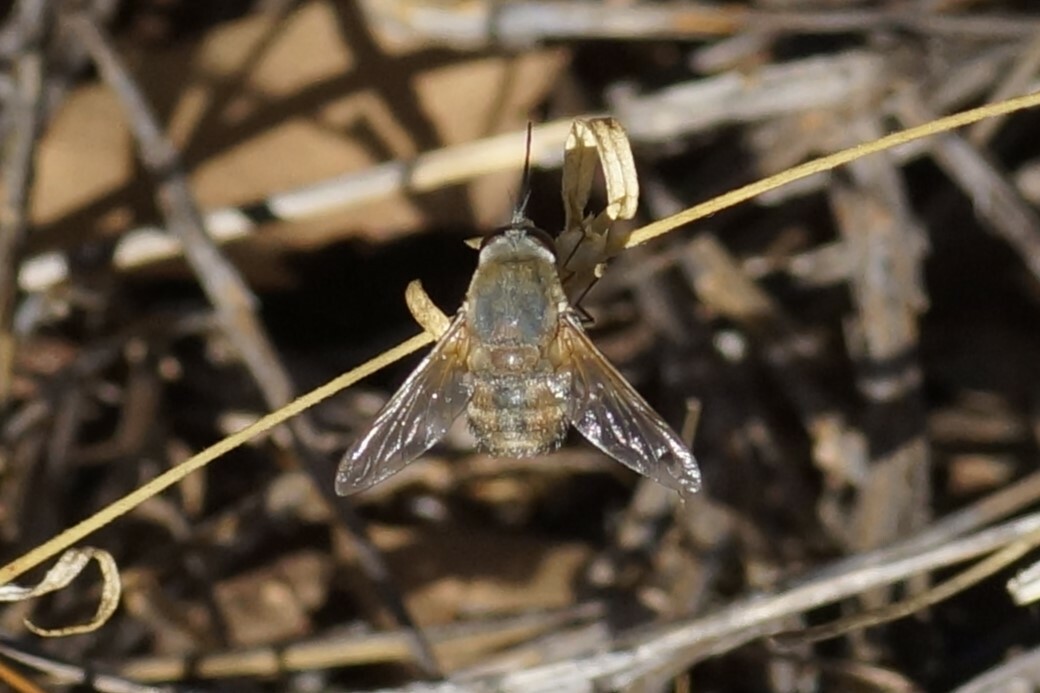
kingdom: Animalia
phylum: Arthropoda
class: Insecta
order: Diptera
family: Bombyliidae
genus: Eristalopsis
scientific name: Eristalopsis australis
